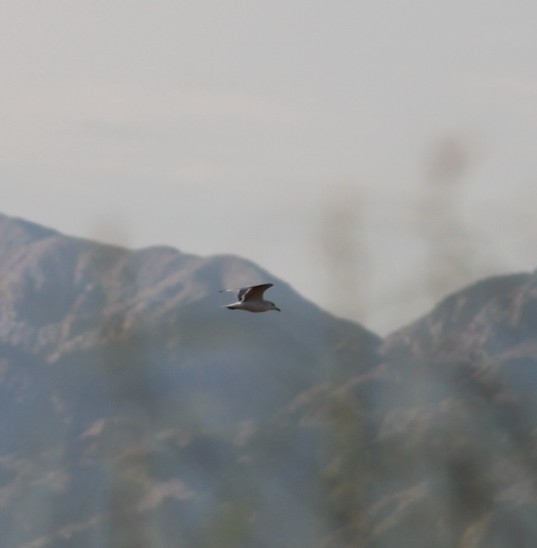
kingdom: Animalia
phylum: Chordata
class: Aves
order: Charadriiformes
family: Laridae
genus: Larus
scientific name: Larus delawarensis
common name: Ring-billed gull
